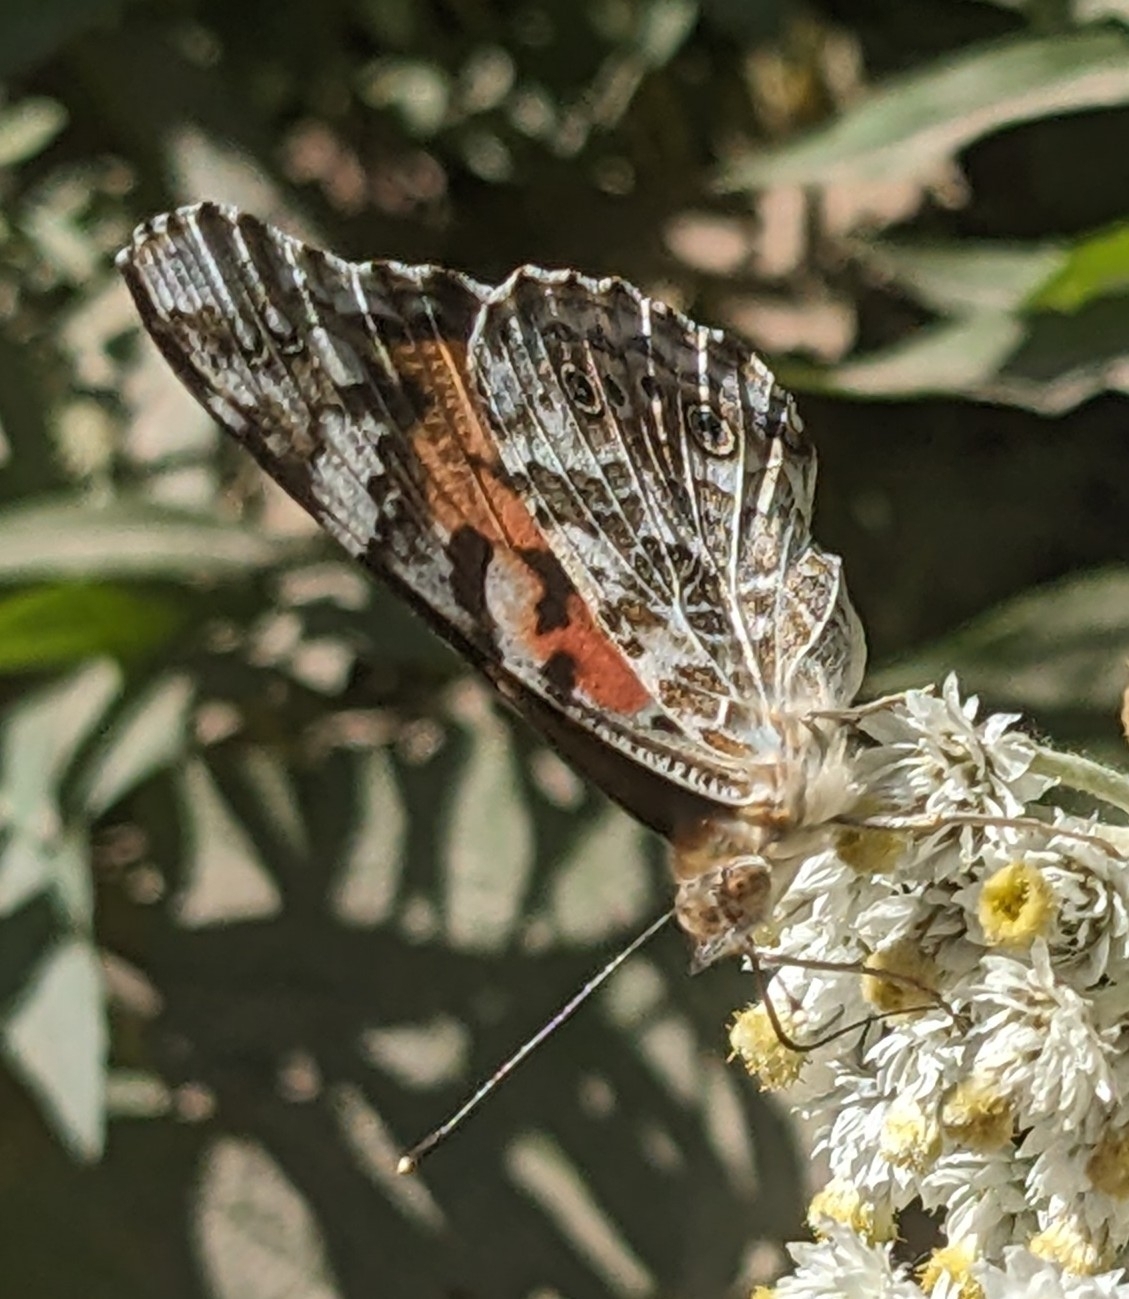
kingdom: Animalia
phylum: Arthropoda
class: Insecta
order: Lepidoptera
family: Nymphalidae
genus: Vanessa
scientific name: Vanessa cardui
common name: Painted lady
